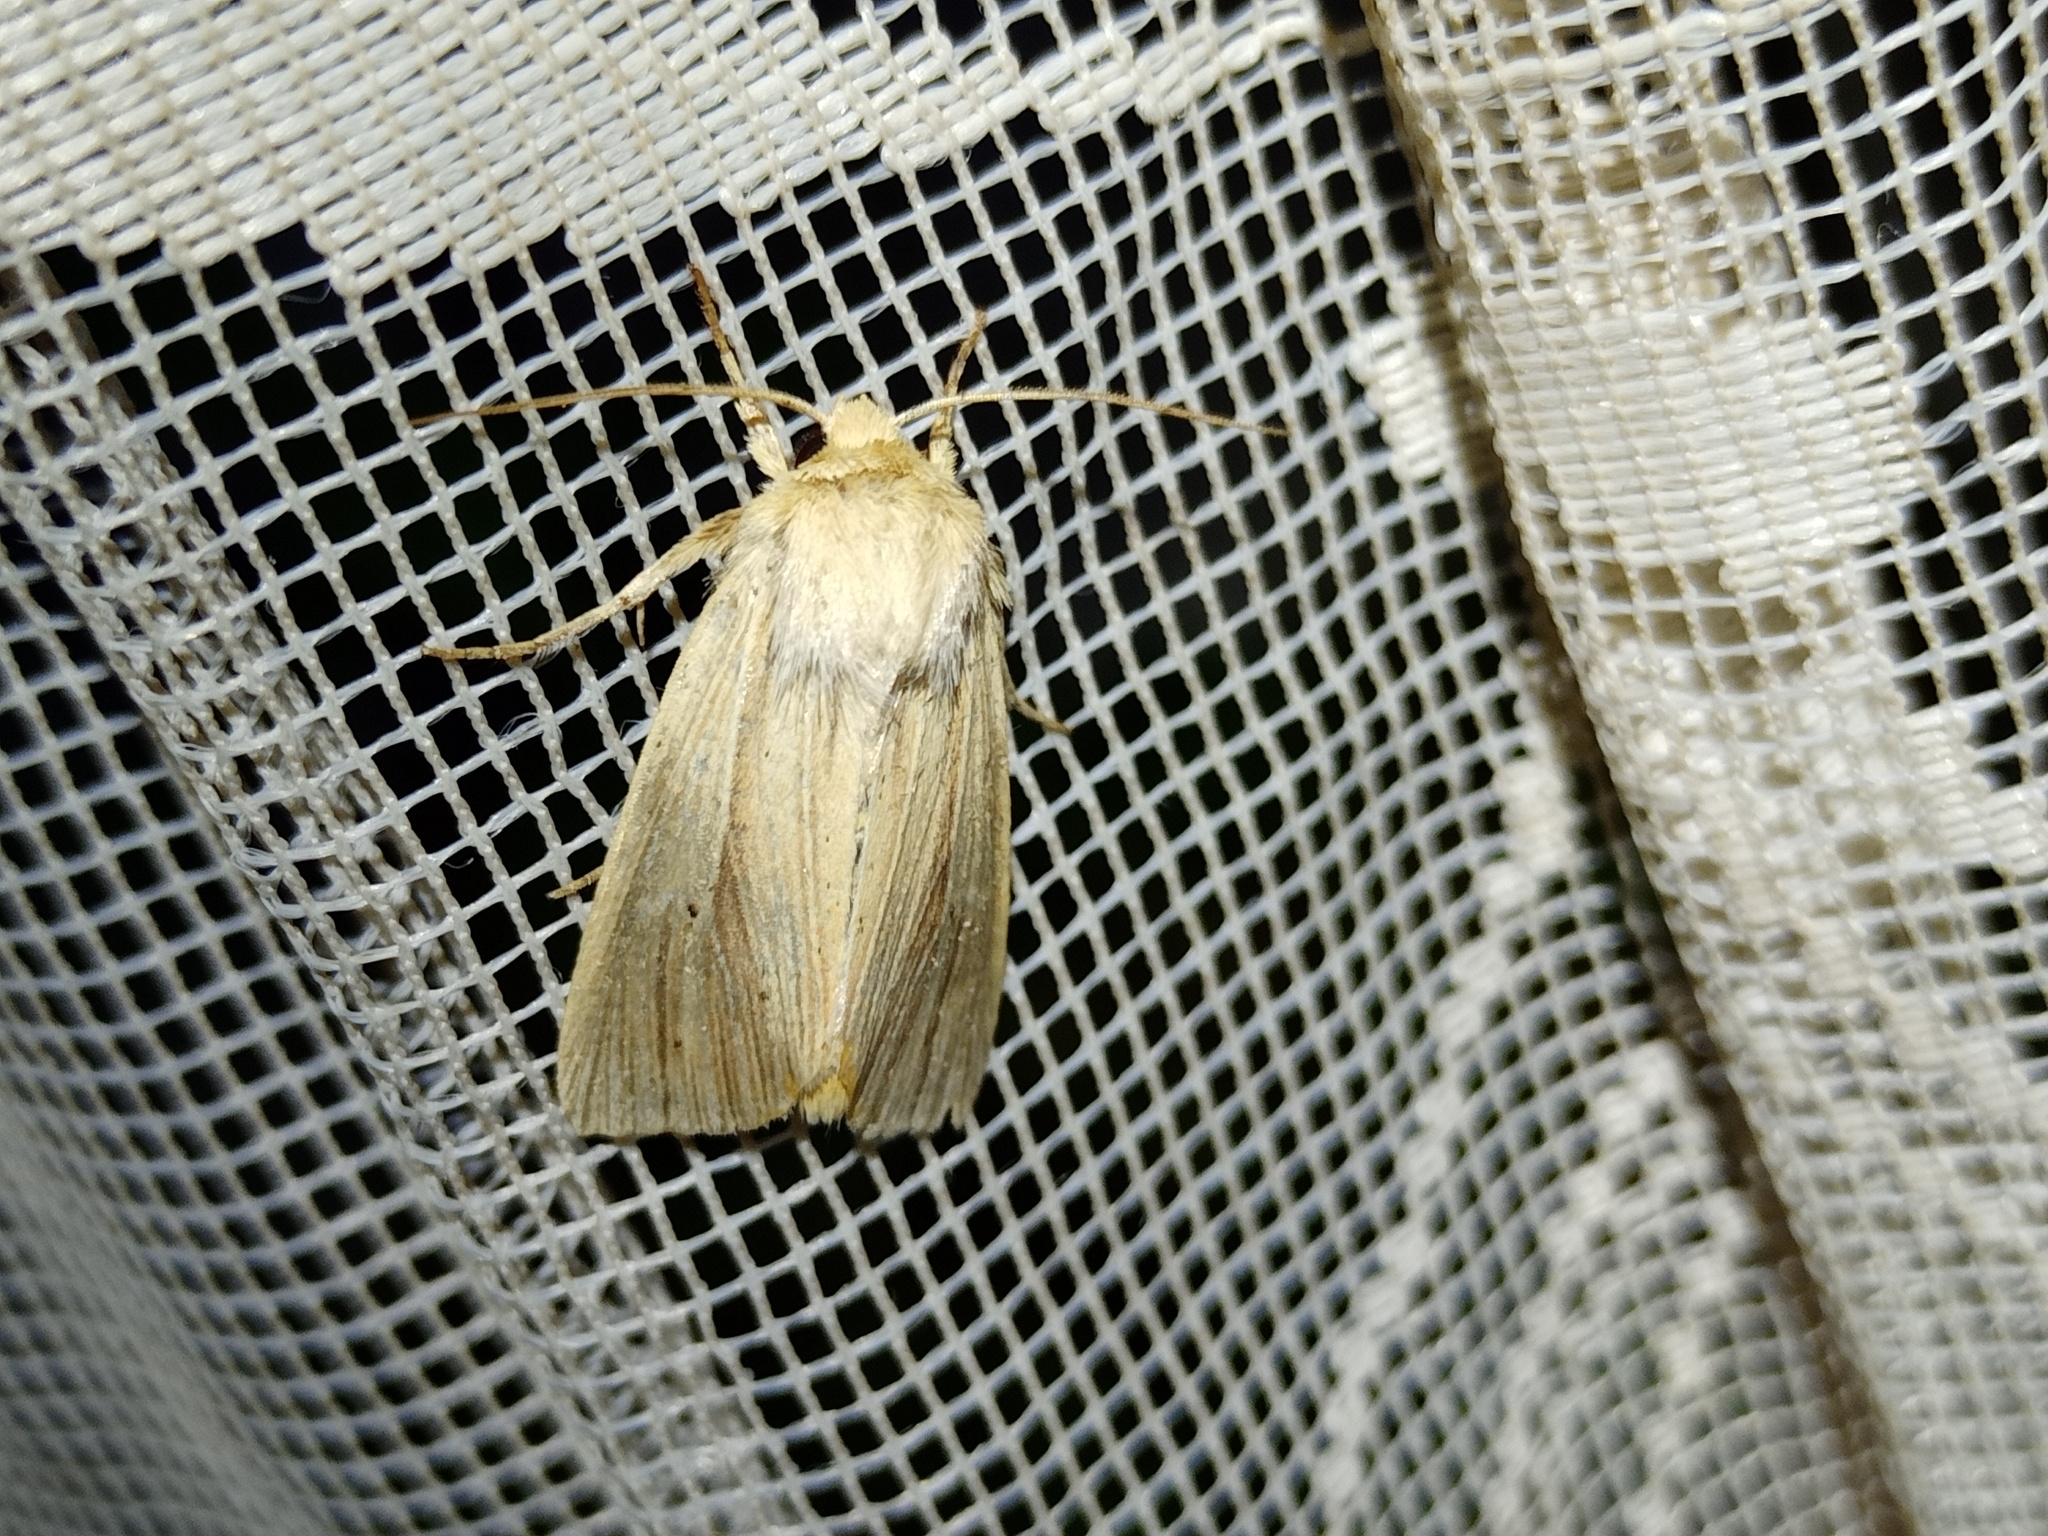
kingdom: Animalia
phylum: Arthropoda
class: Insecta
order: Lepidoptera
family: Noctuidae
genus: Mythimna
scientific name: Mythimna impura
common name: Smoky wainscot
